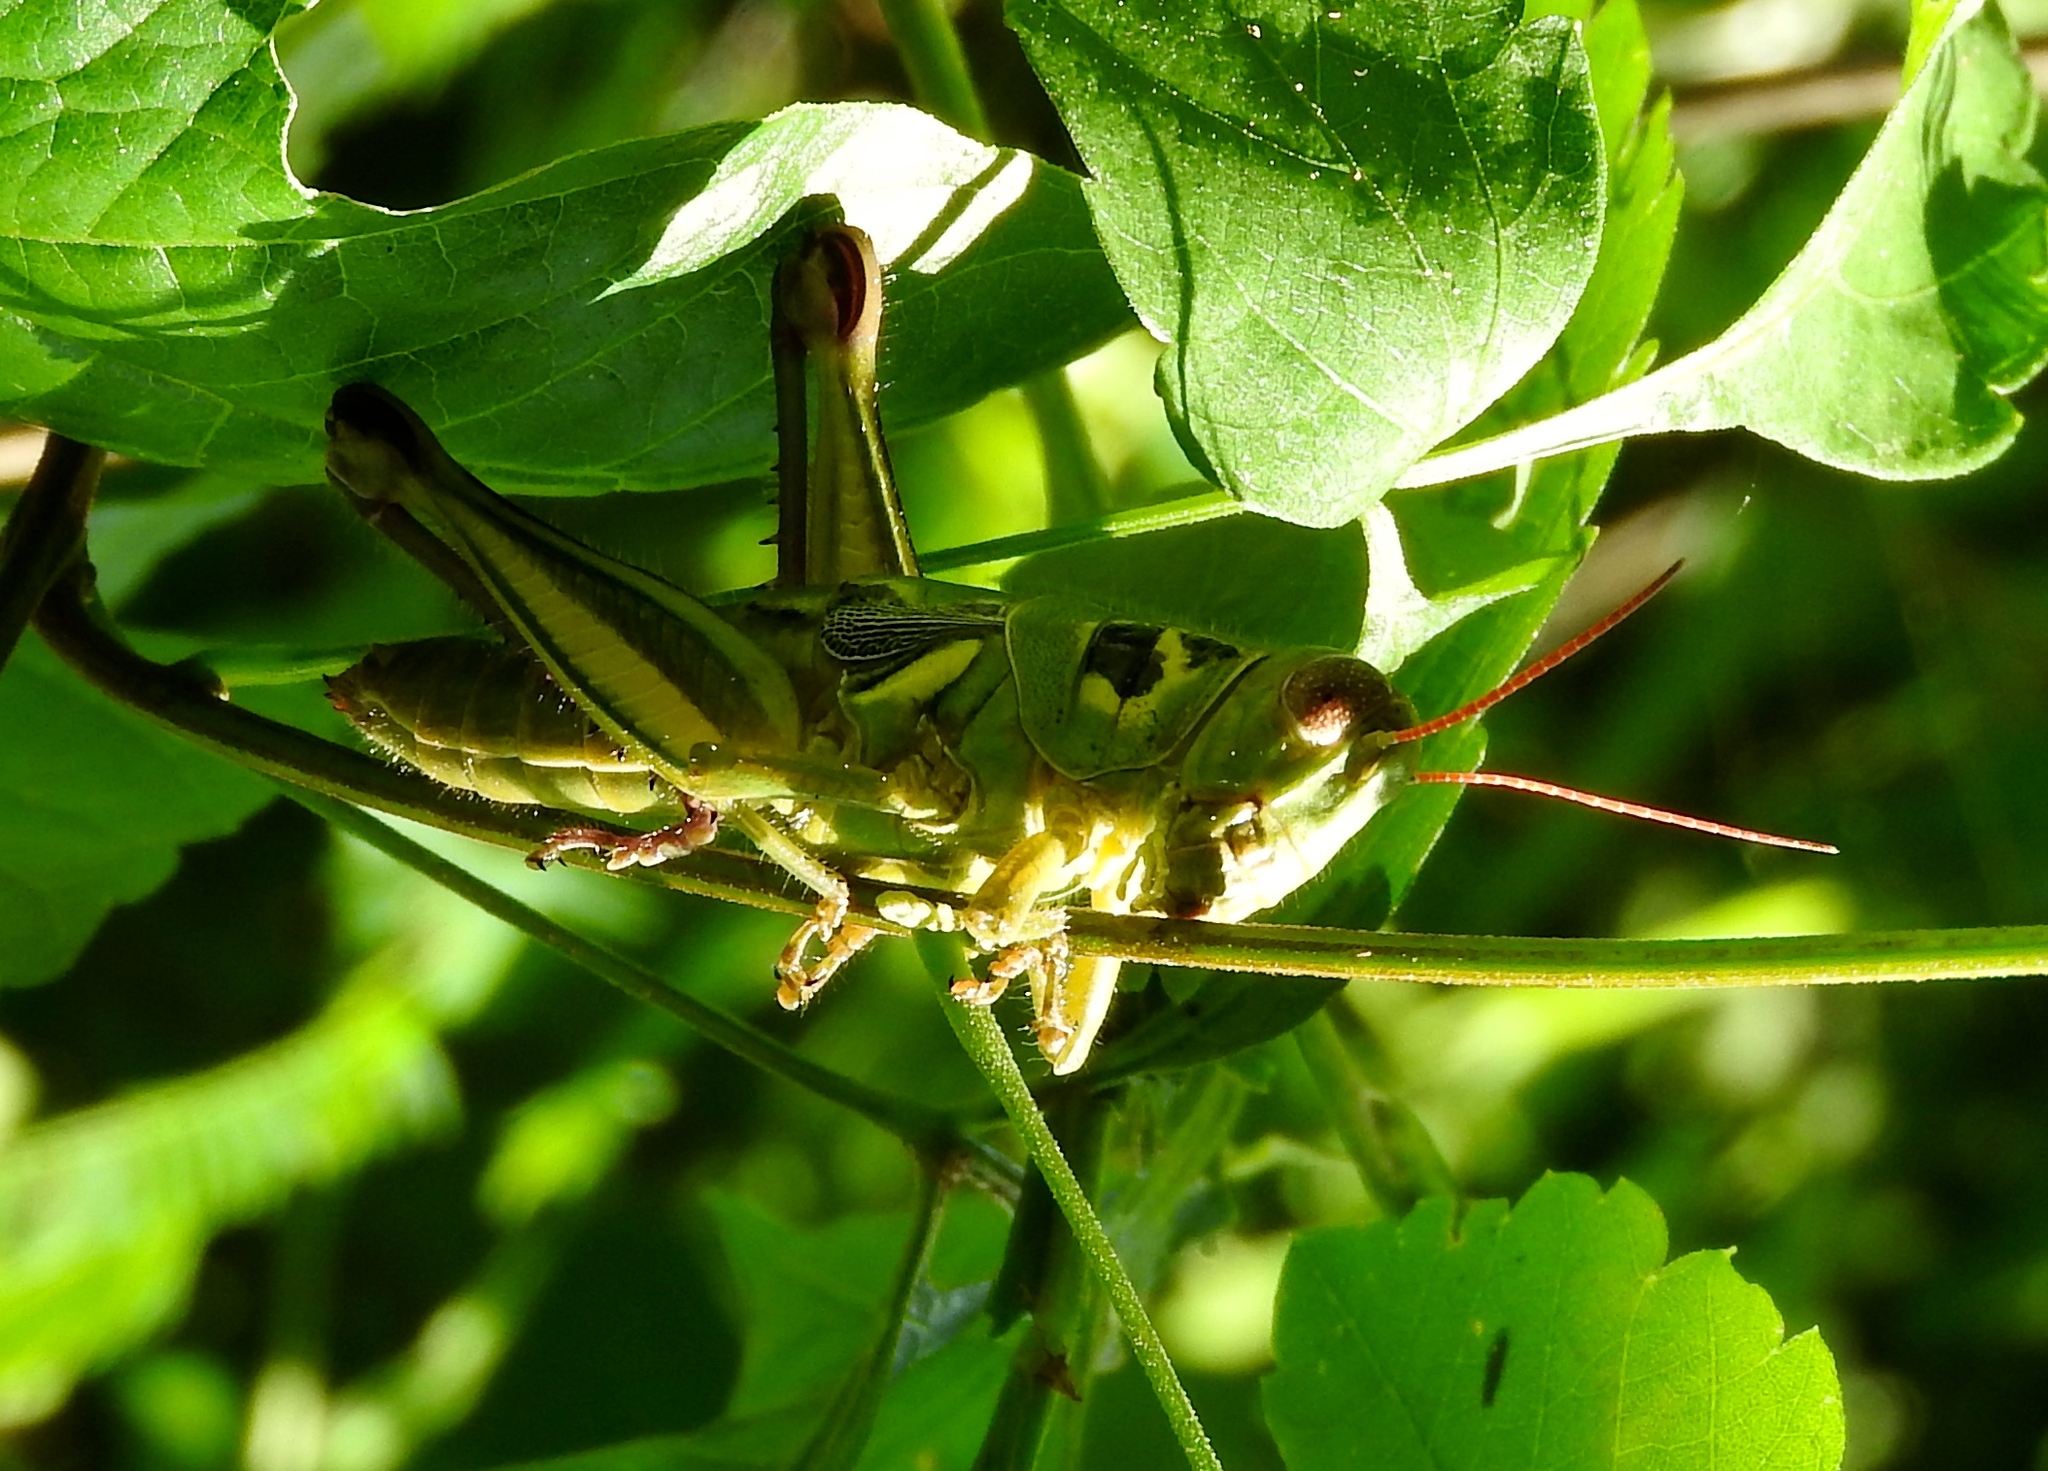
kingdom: Animalia
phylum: Arthropoda
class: Insecta
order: Orthoptera
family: Acrididae
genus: Barytettix
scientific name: Barytettix
